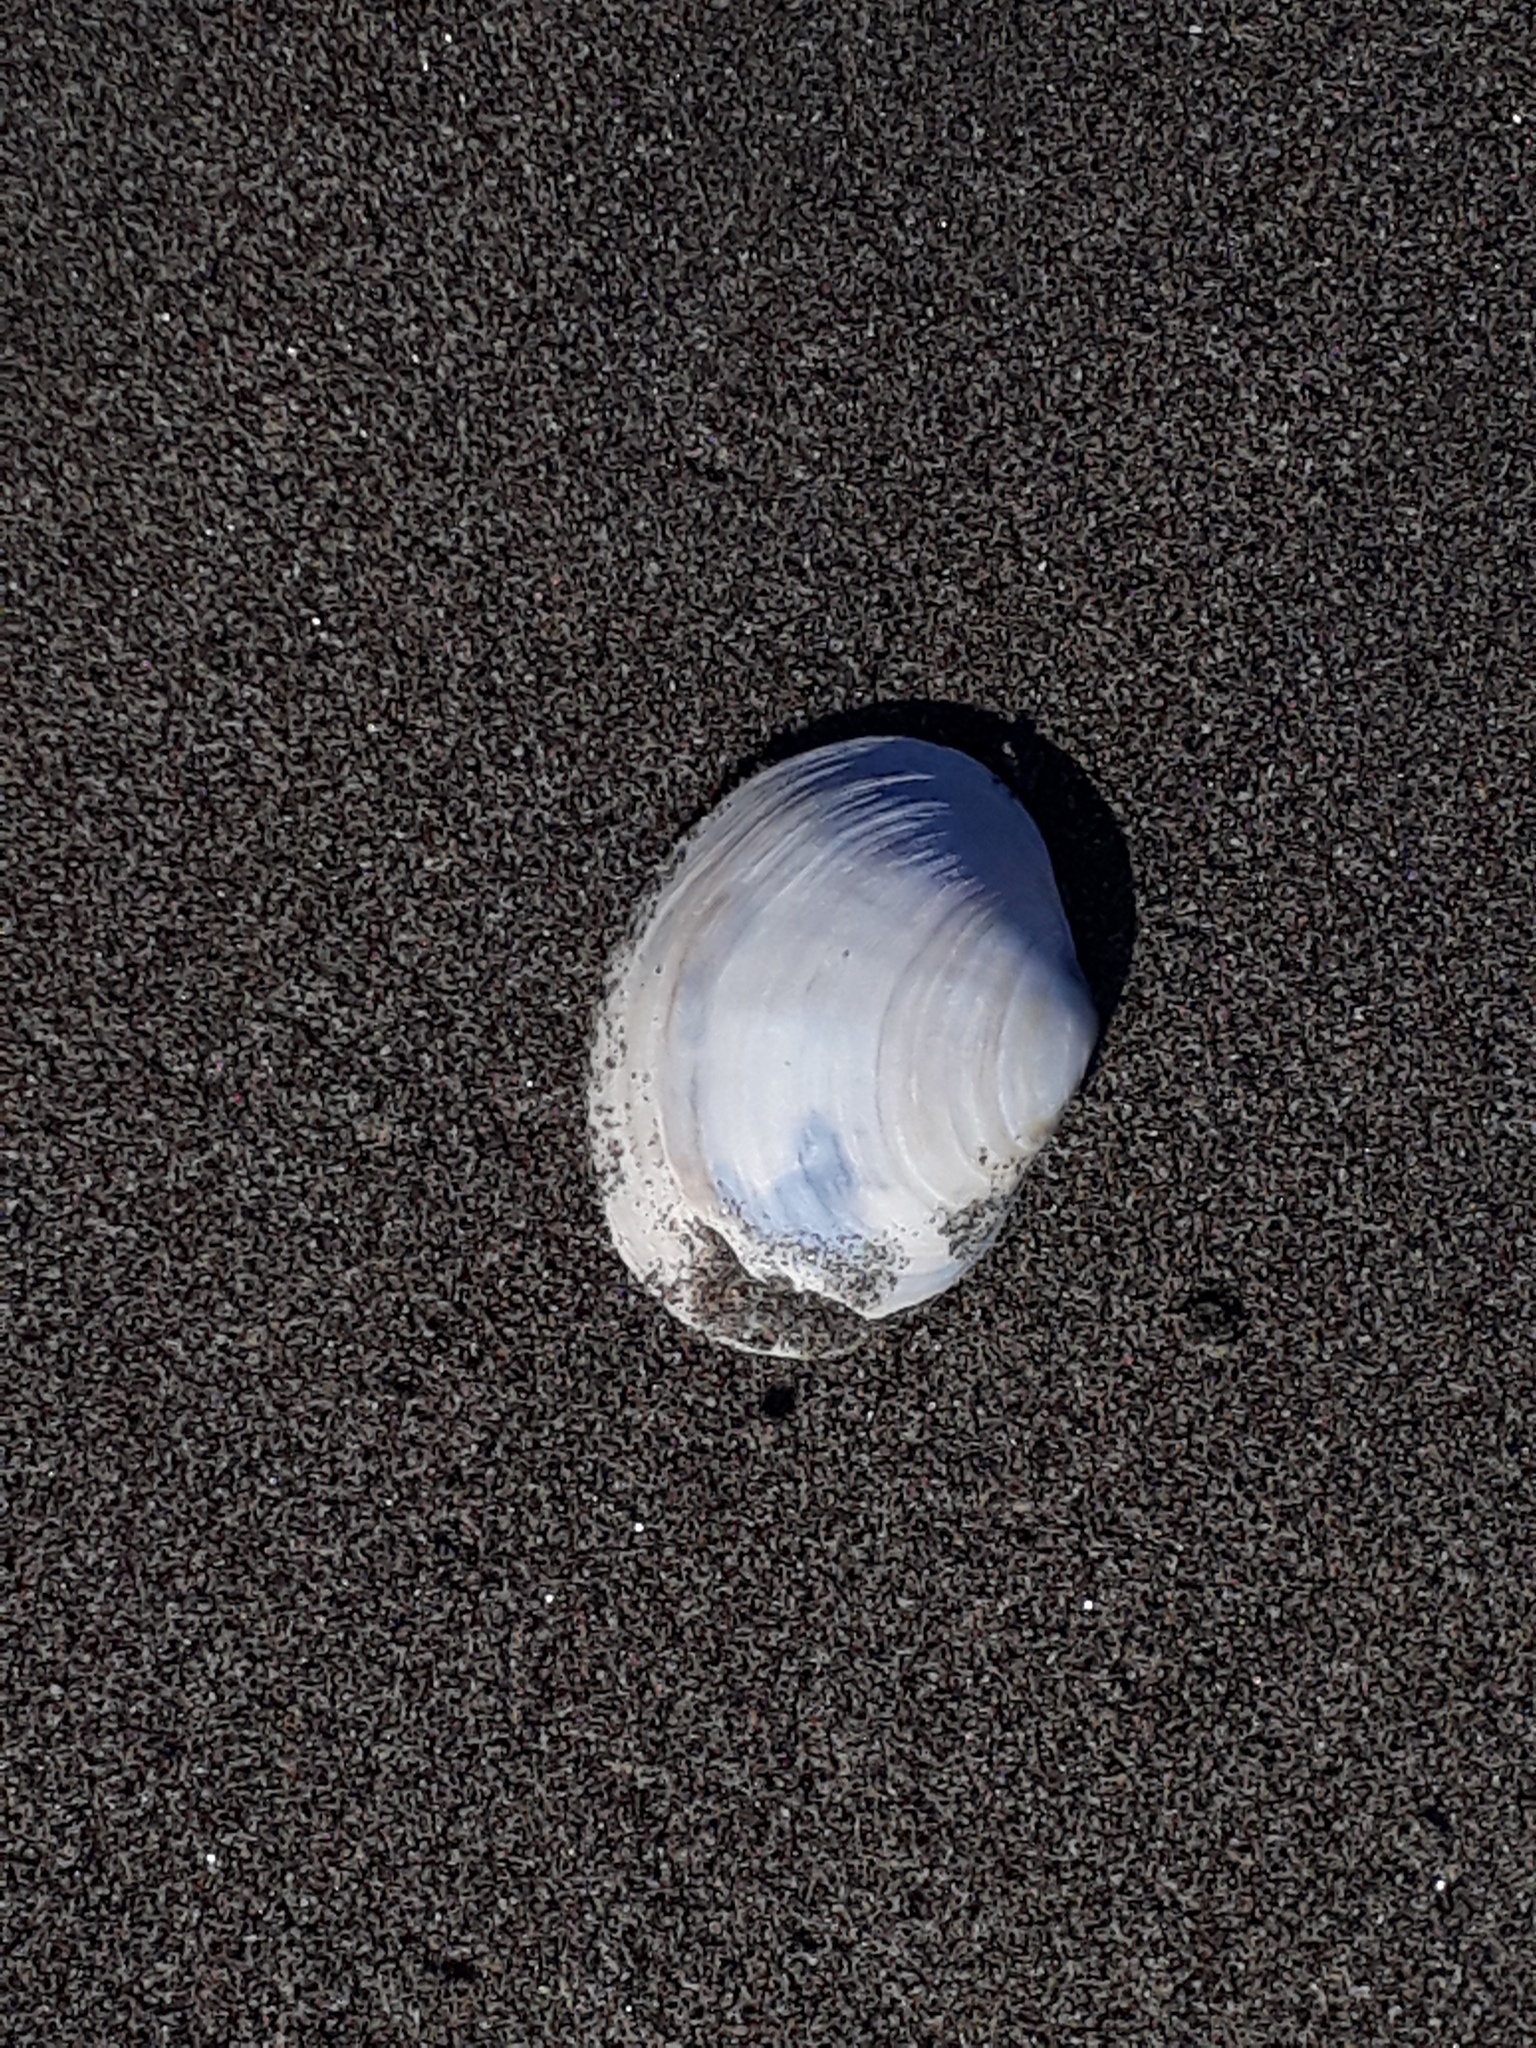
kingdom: Animalia
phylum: Mollusca
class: Bivalvia
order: Venerida
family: Mactridae
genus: Cyclomactra
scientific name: Cyclomactra tristis
